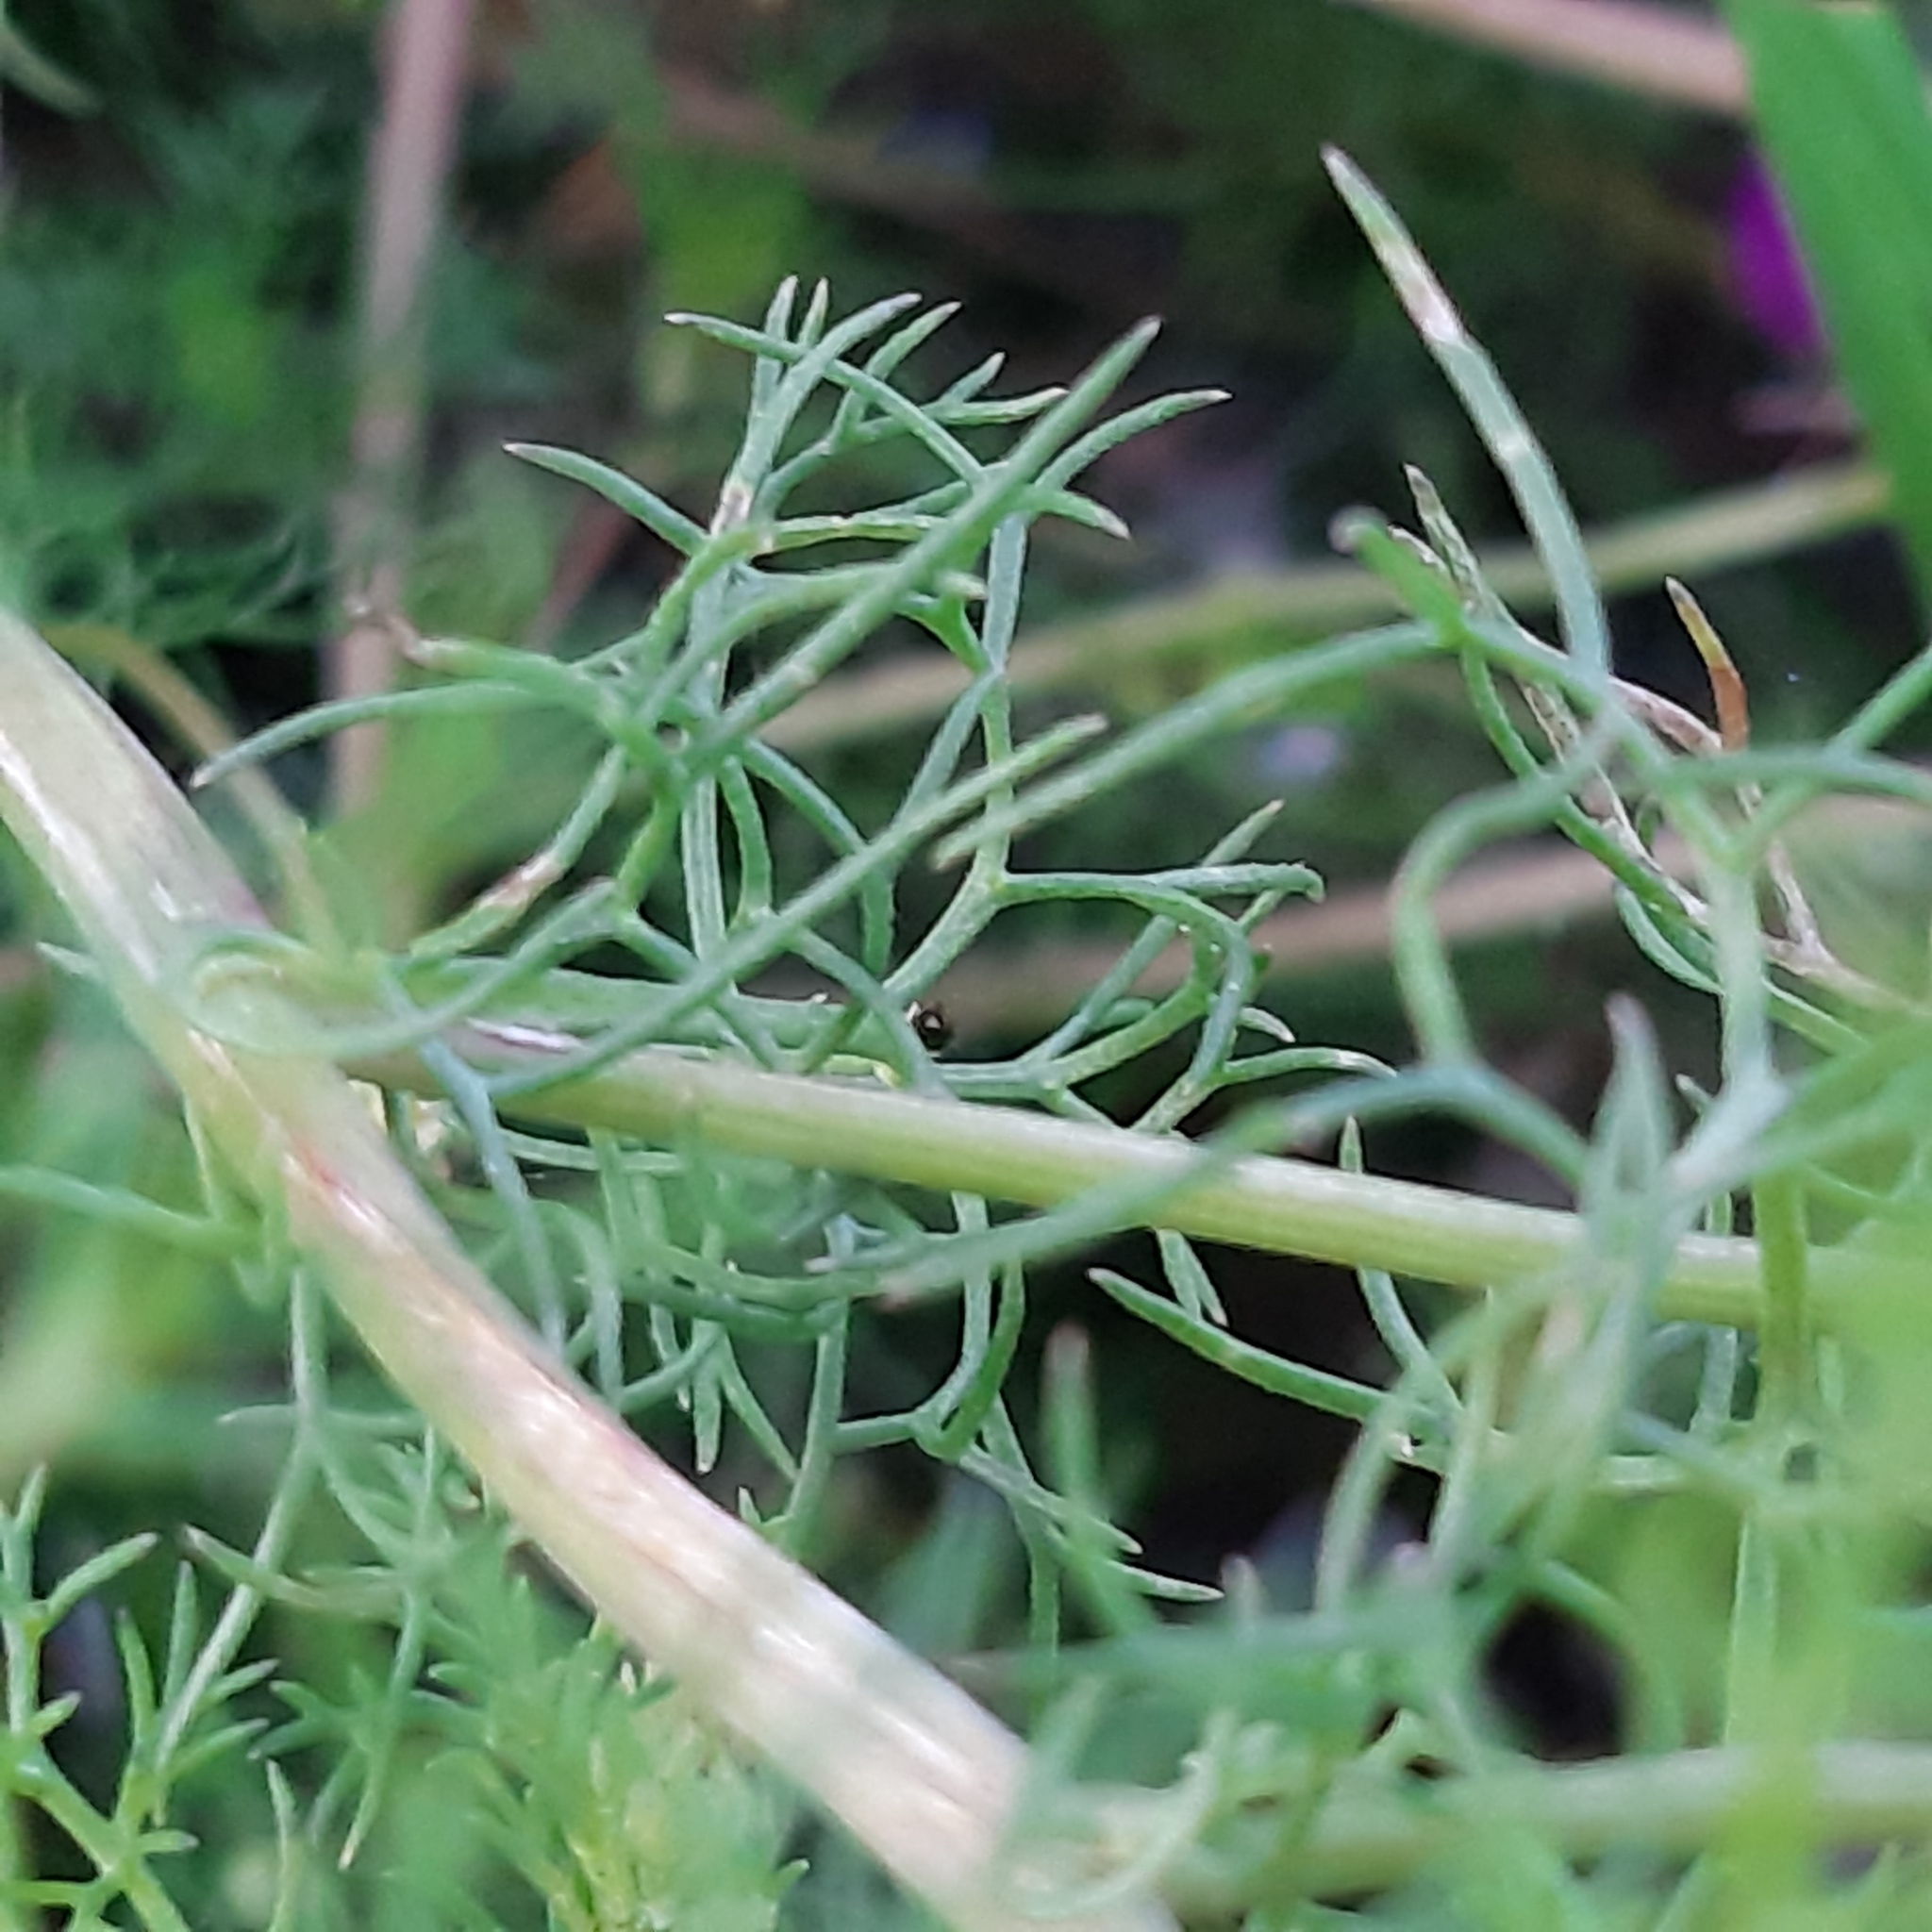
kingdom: Plantae
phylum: Tracheophyta
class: Magnoliopsida
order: Asterales
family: Asteraceae
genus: Tripleurospermum
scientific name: Tripleurospermum inodorum
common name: Scentless mayweed
